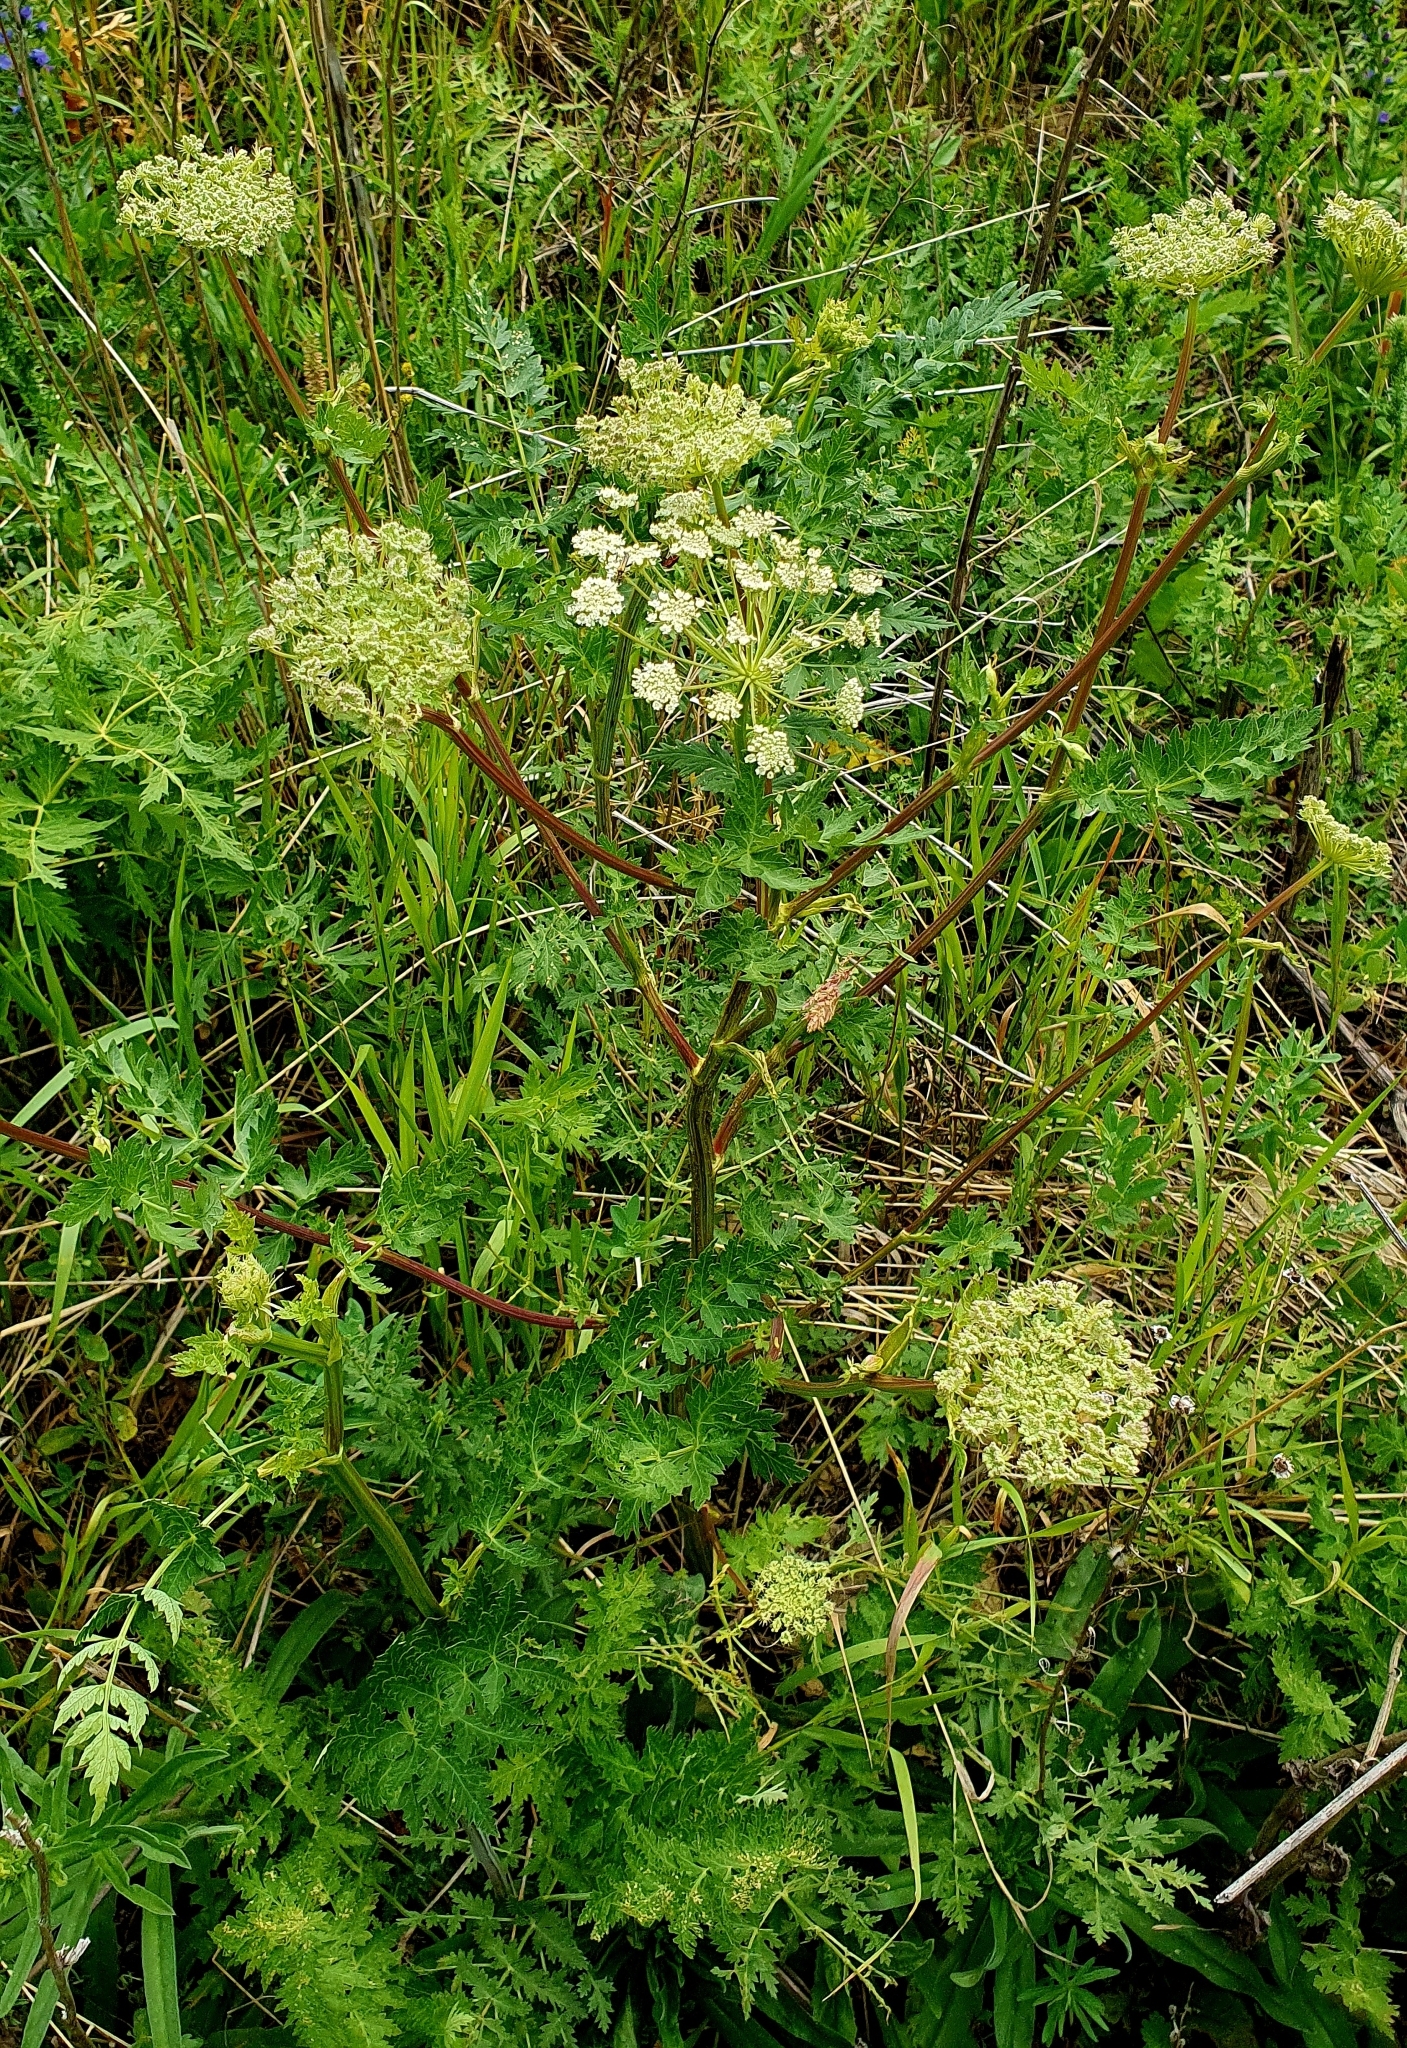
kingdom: Plantae
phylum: Tracheophyta
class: Magnoliopsida
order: Apiales
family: Apiaceae
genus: Seseli
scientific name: Seseli libanotis
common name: Mooncarrot
